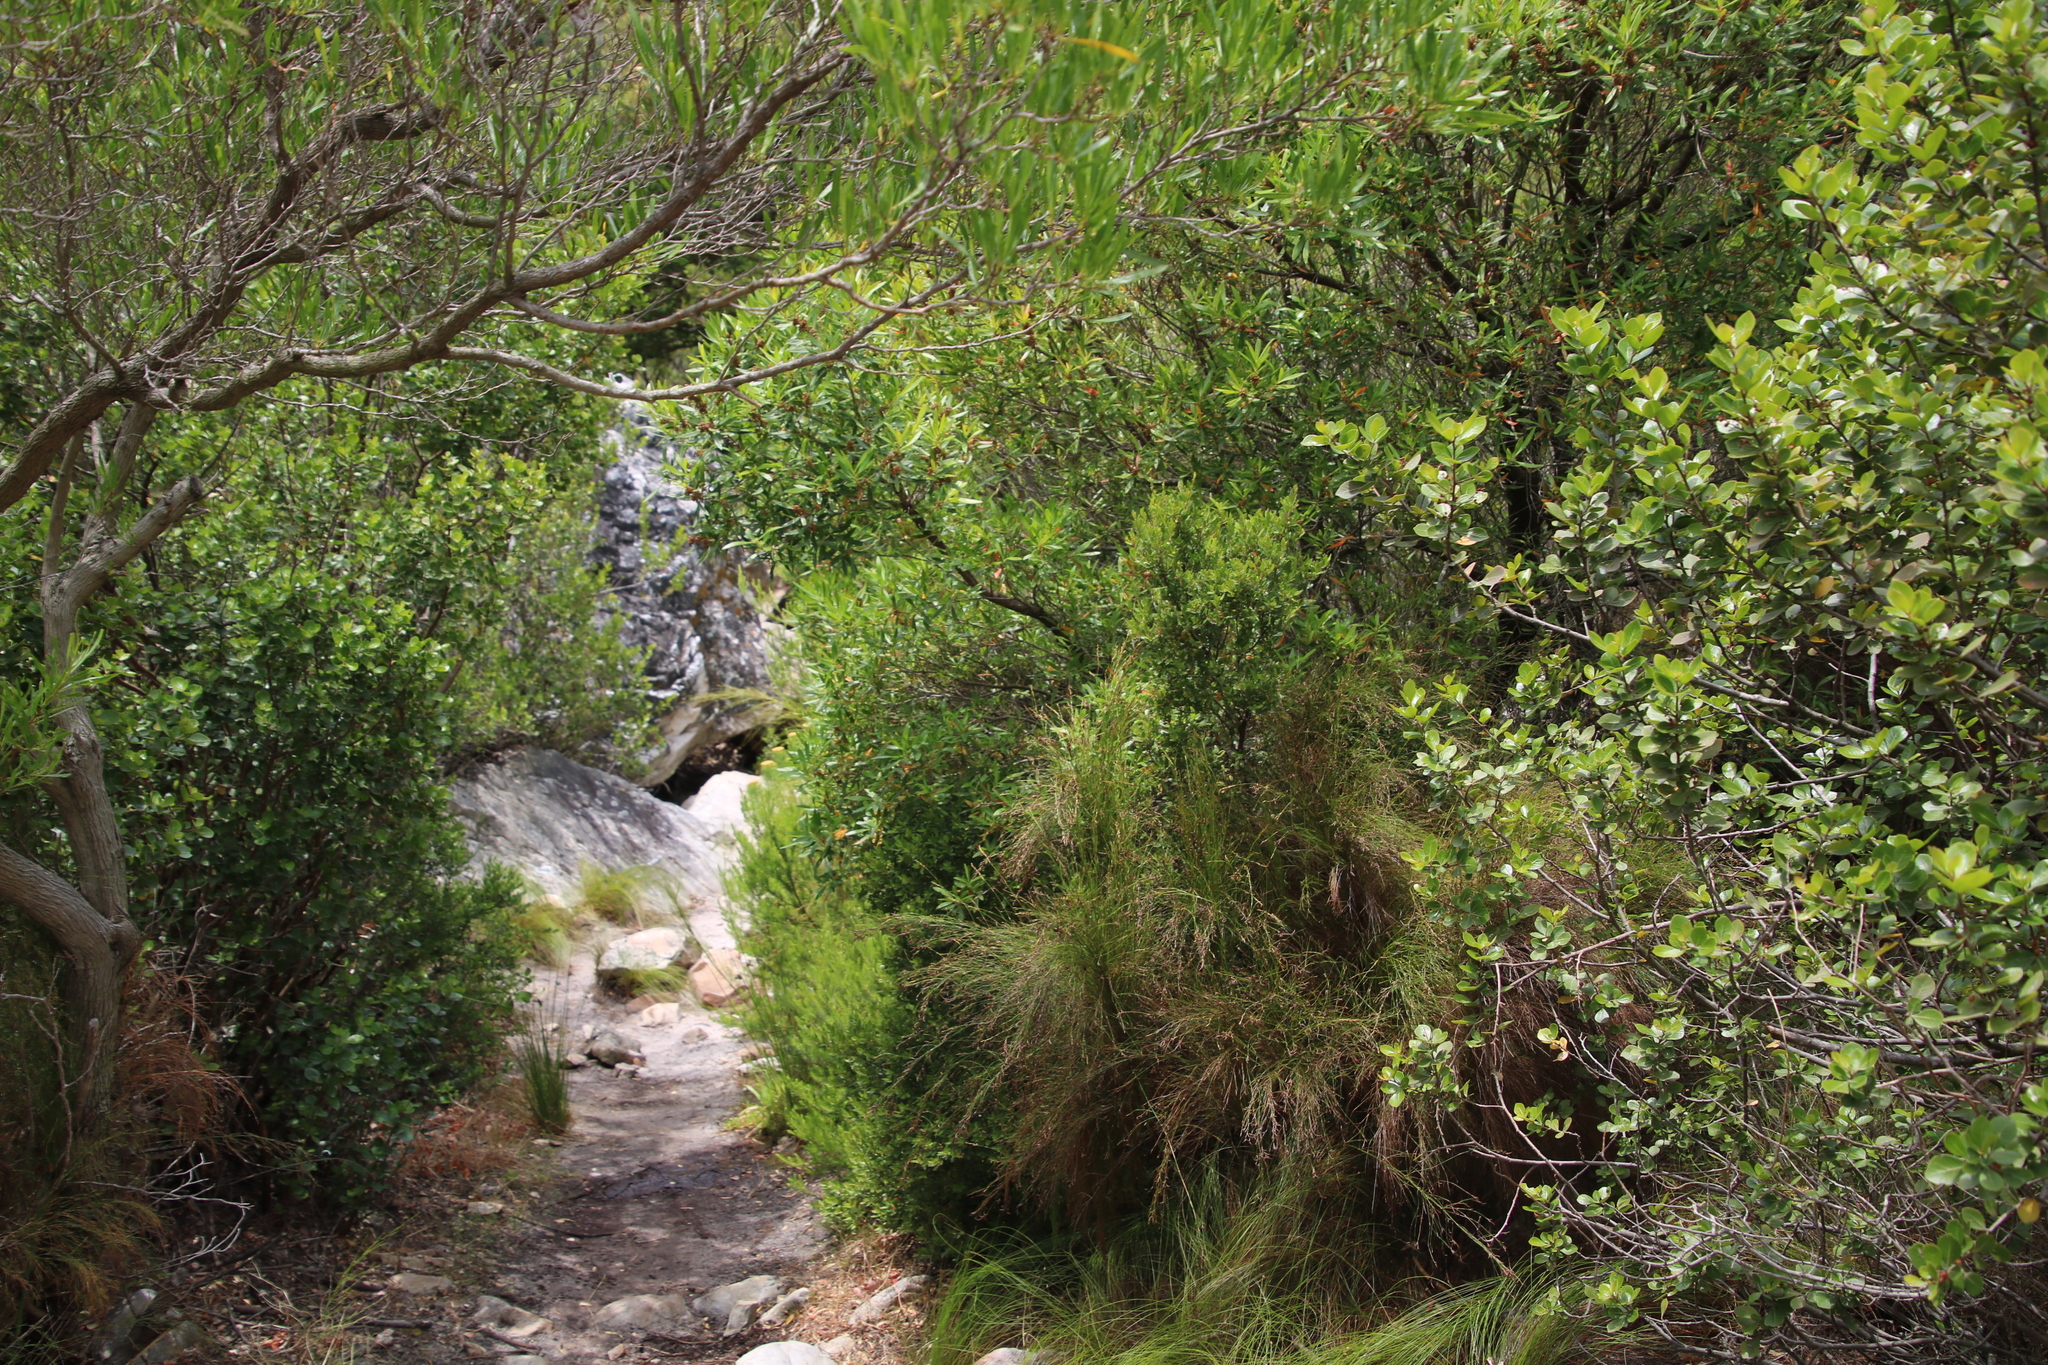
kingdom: Plantae
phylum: Tracheophyta
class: Magnoliopsida
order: Ericales
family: Ebenaceae
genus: Diospyros
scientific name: Diospyros glabra
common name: Fynbos star apple
